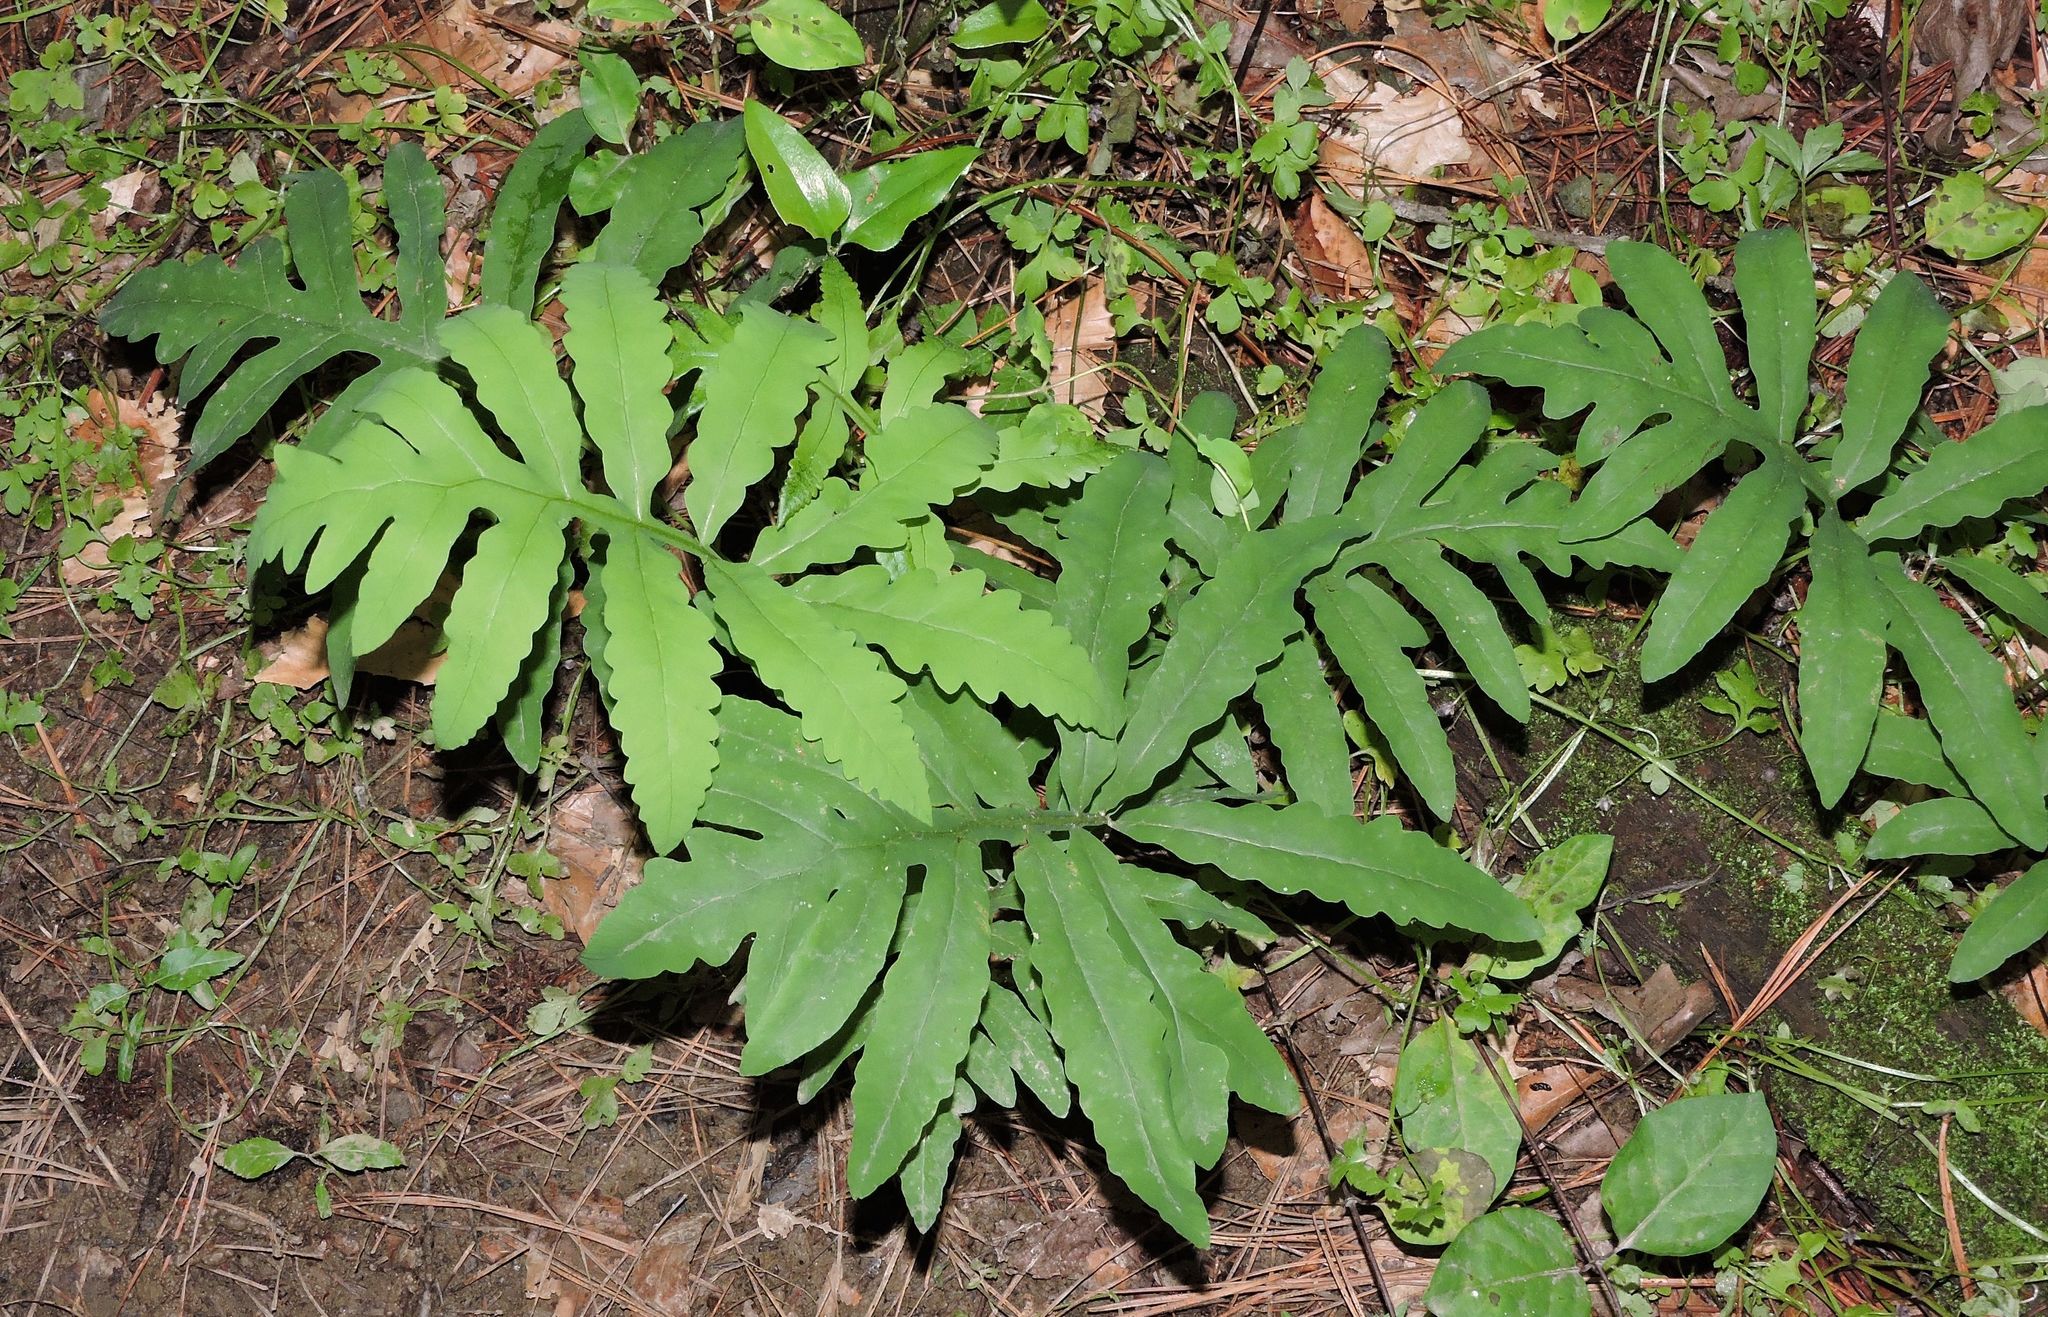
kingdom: Plantae
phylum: Tracheophyta
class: Polypodiopsida
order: Polypodiales
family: Onocleaceae
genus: Onoclea
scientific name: Onoclea sensibilis
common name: Sensitive fern
